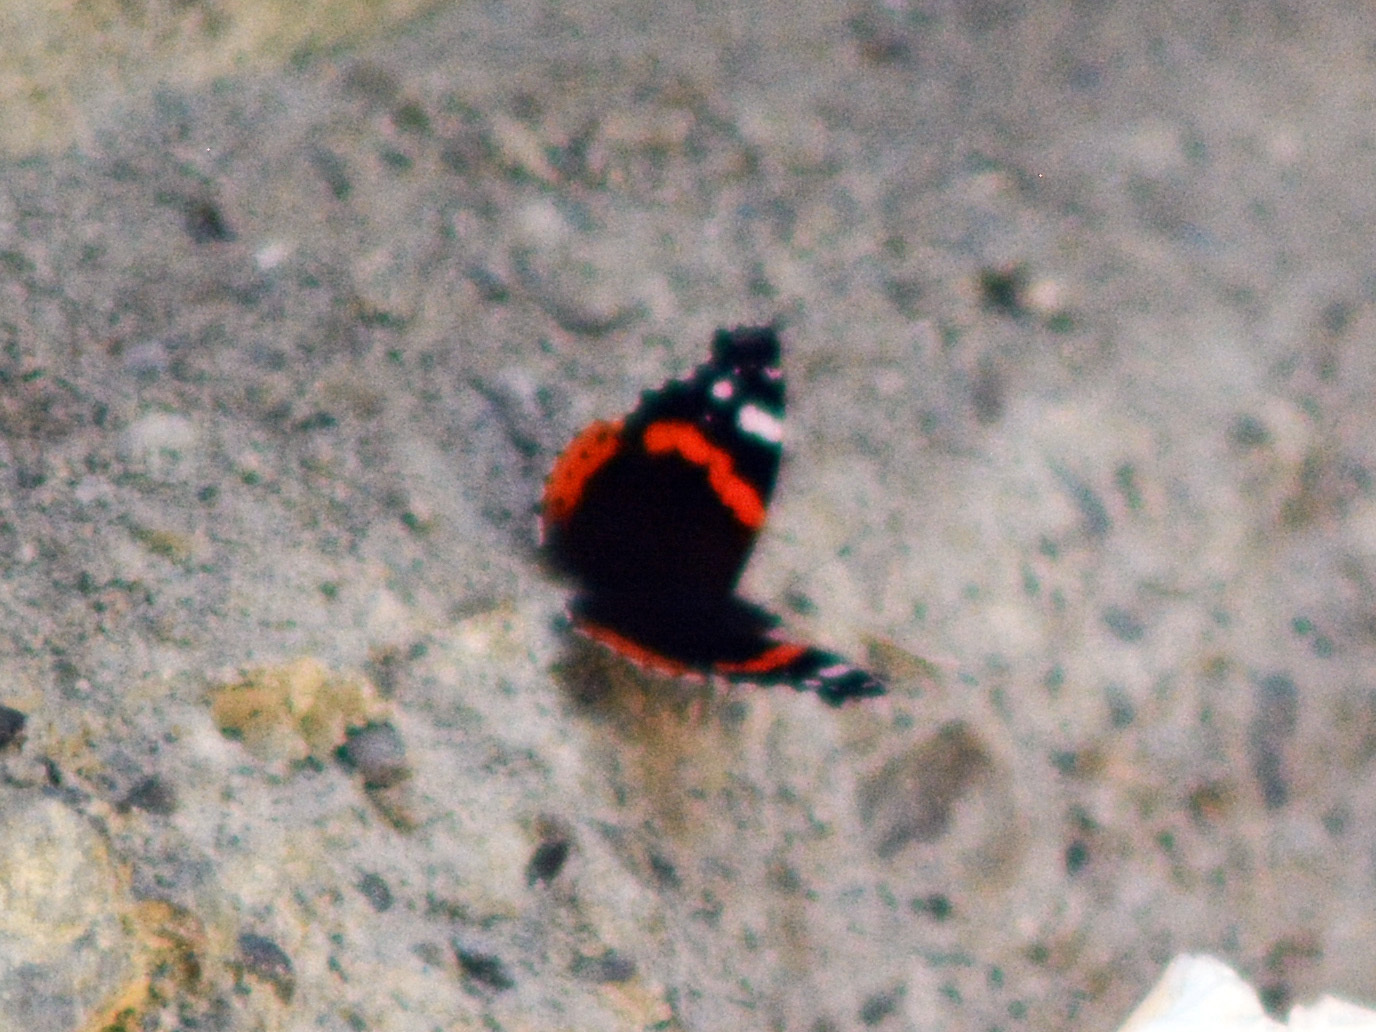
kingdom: Animalia
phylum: Arthropoda
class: Insecta
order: Lepidoptera
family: Nymphalidae
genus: Vanessa
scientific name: Vanessa atalanta
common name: Red admiral
